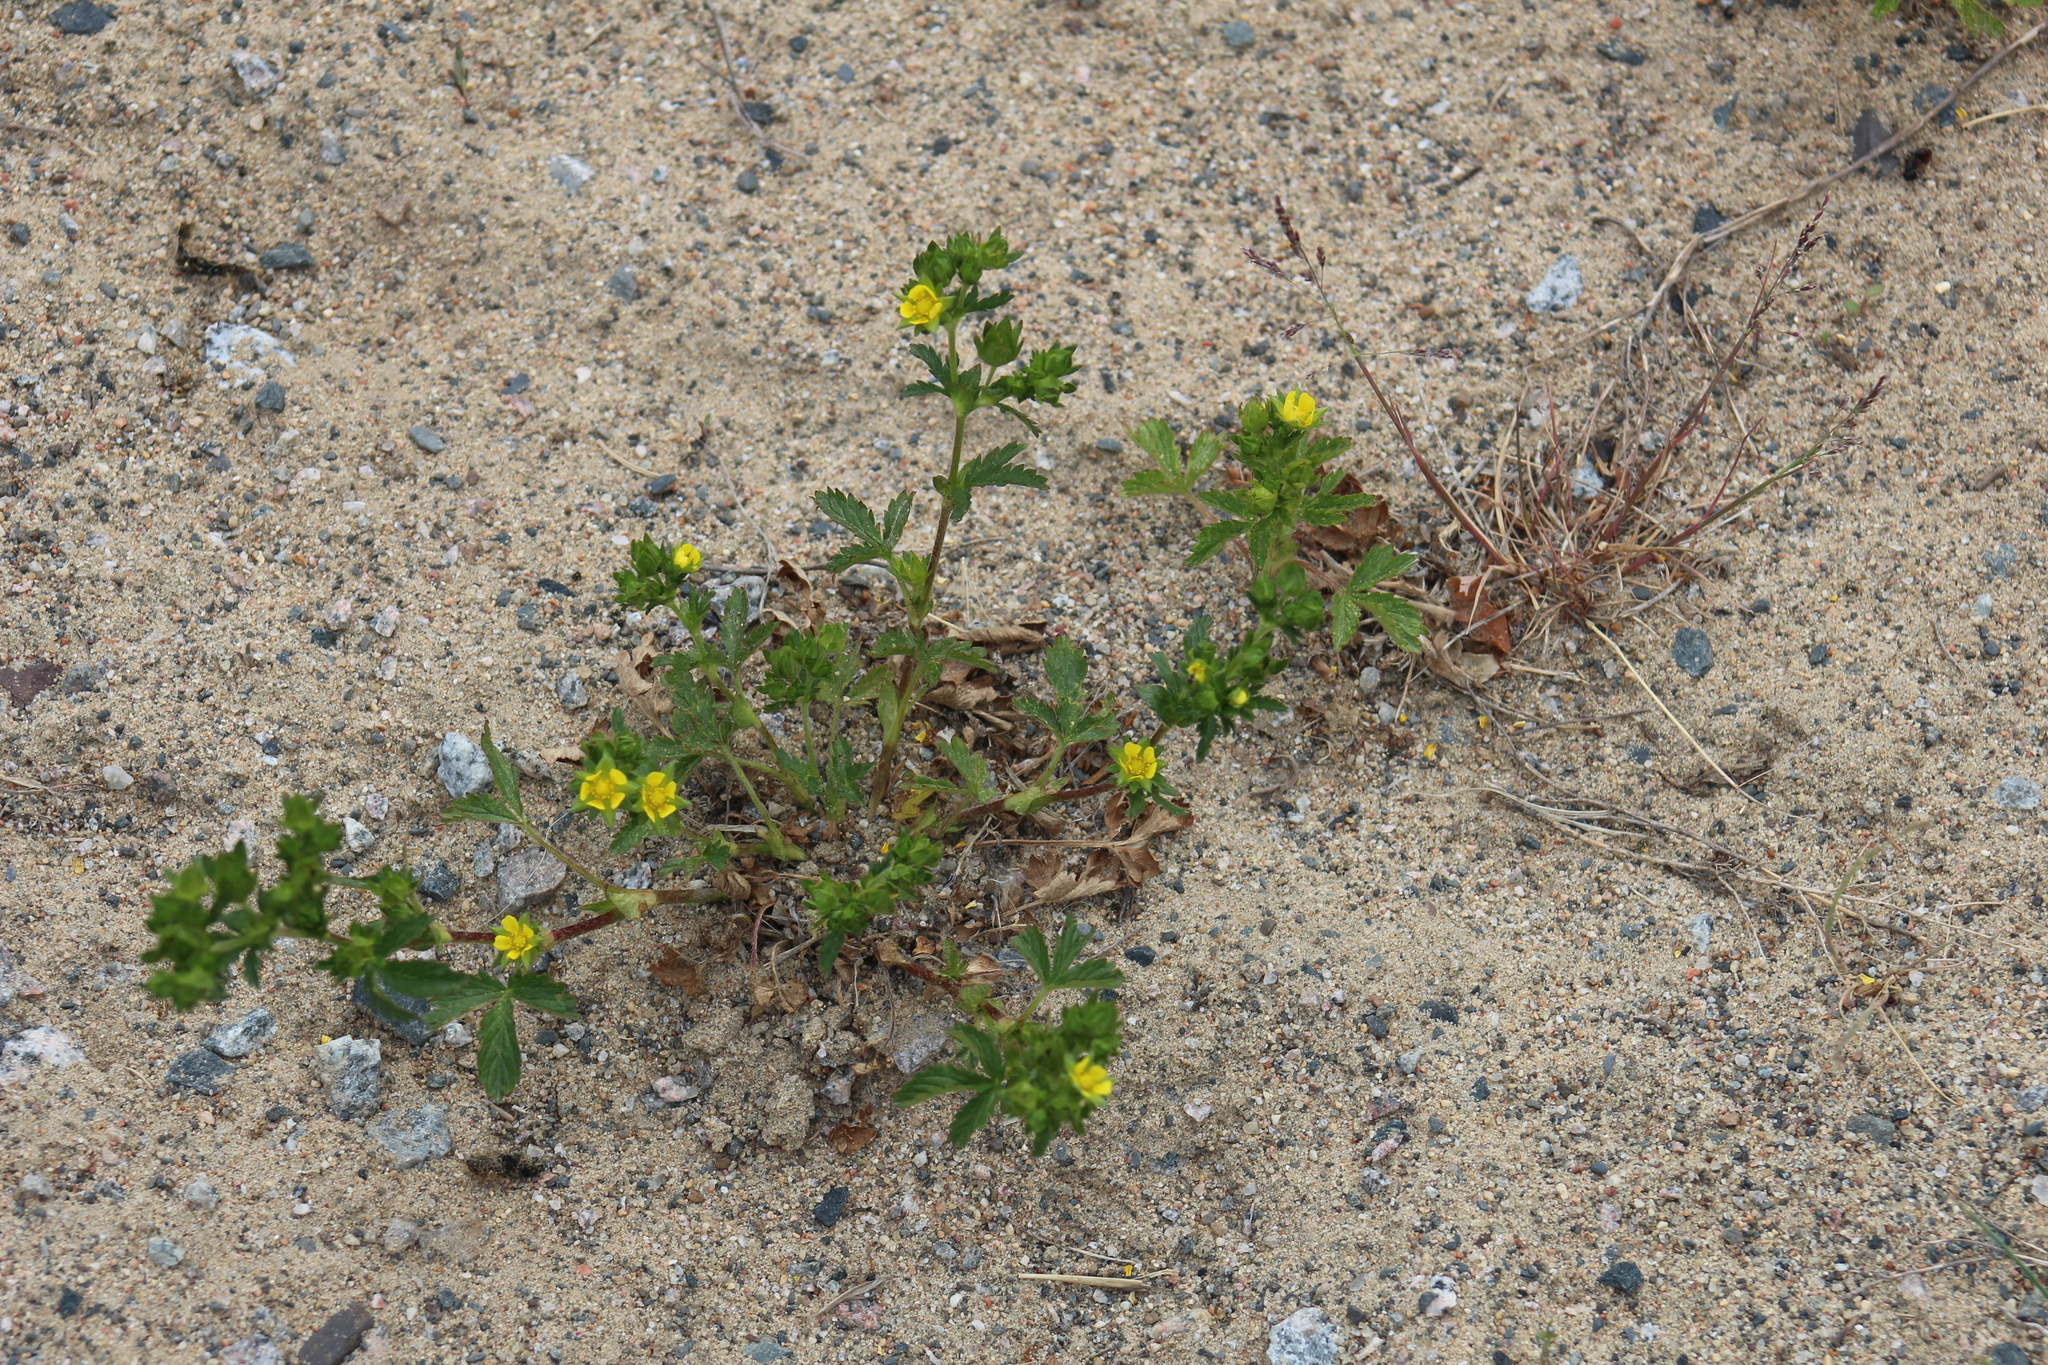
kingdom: Plantae
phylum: Tracheophyta
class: Magnoliopsida
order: Rosales
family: Rosaceae
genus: Potentilla
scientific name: Potentilla norvegica
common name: Ternate-leaved cinquefoil
